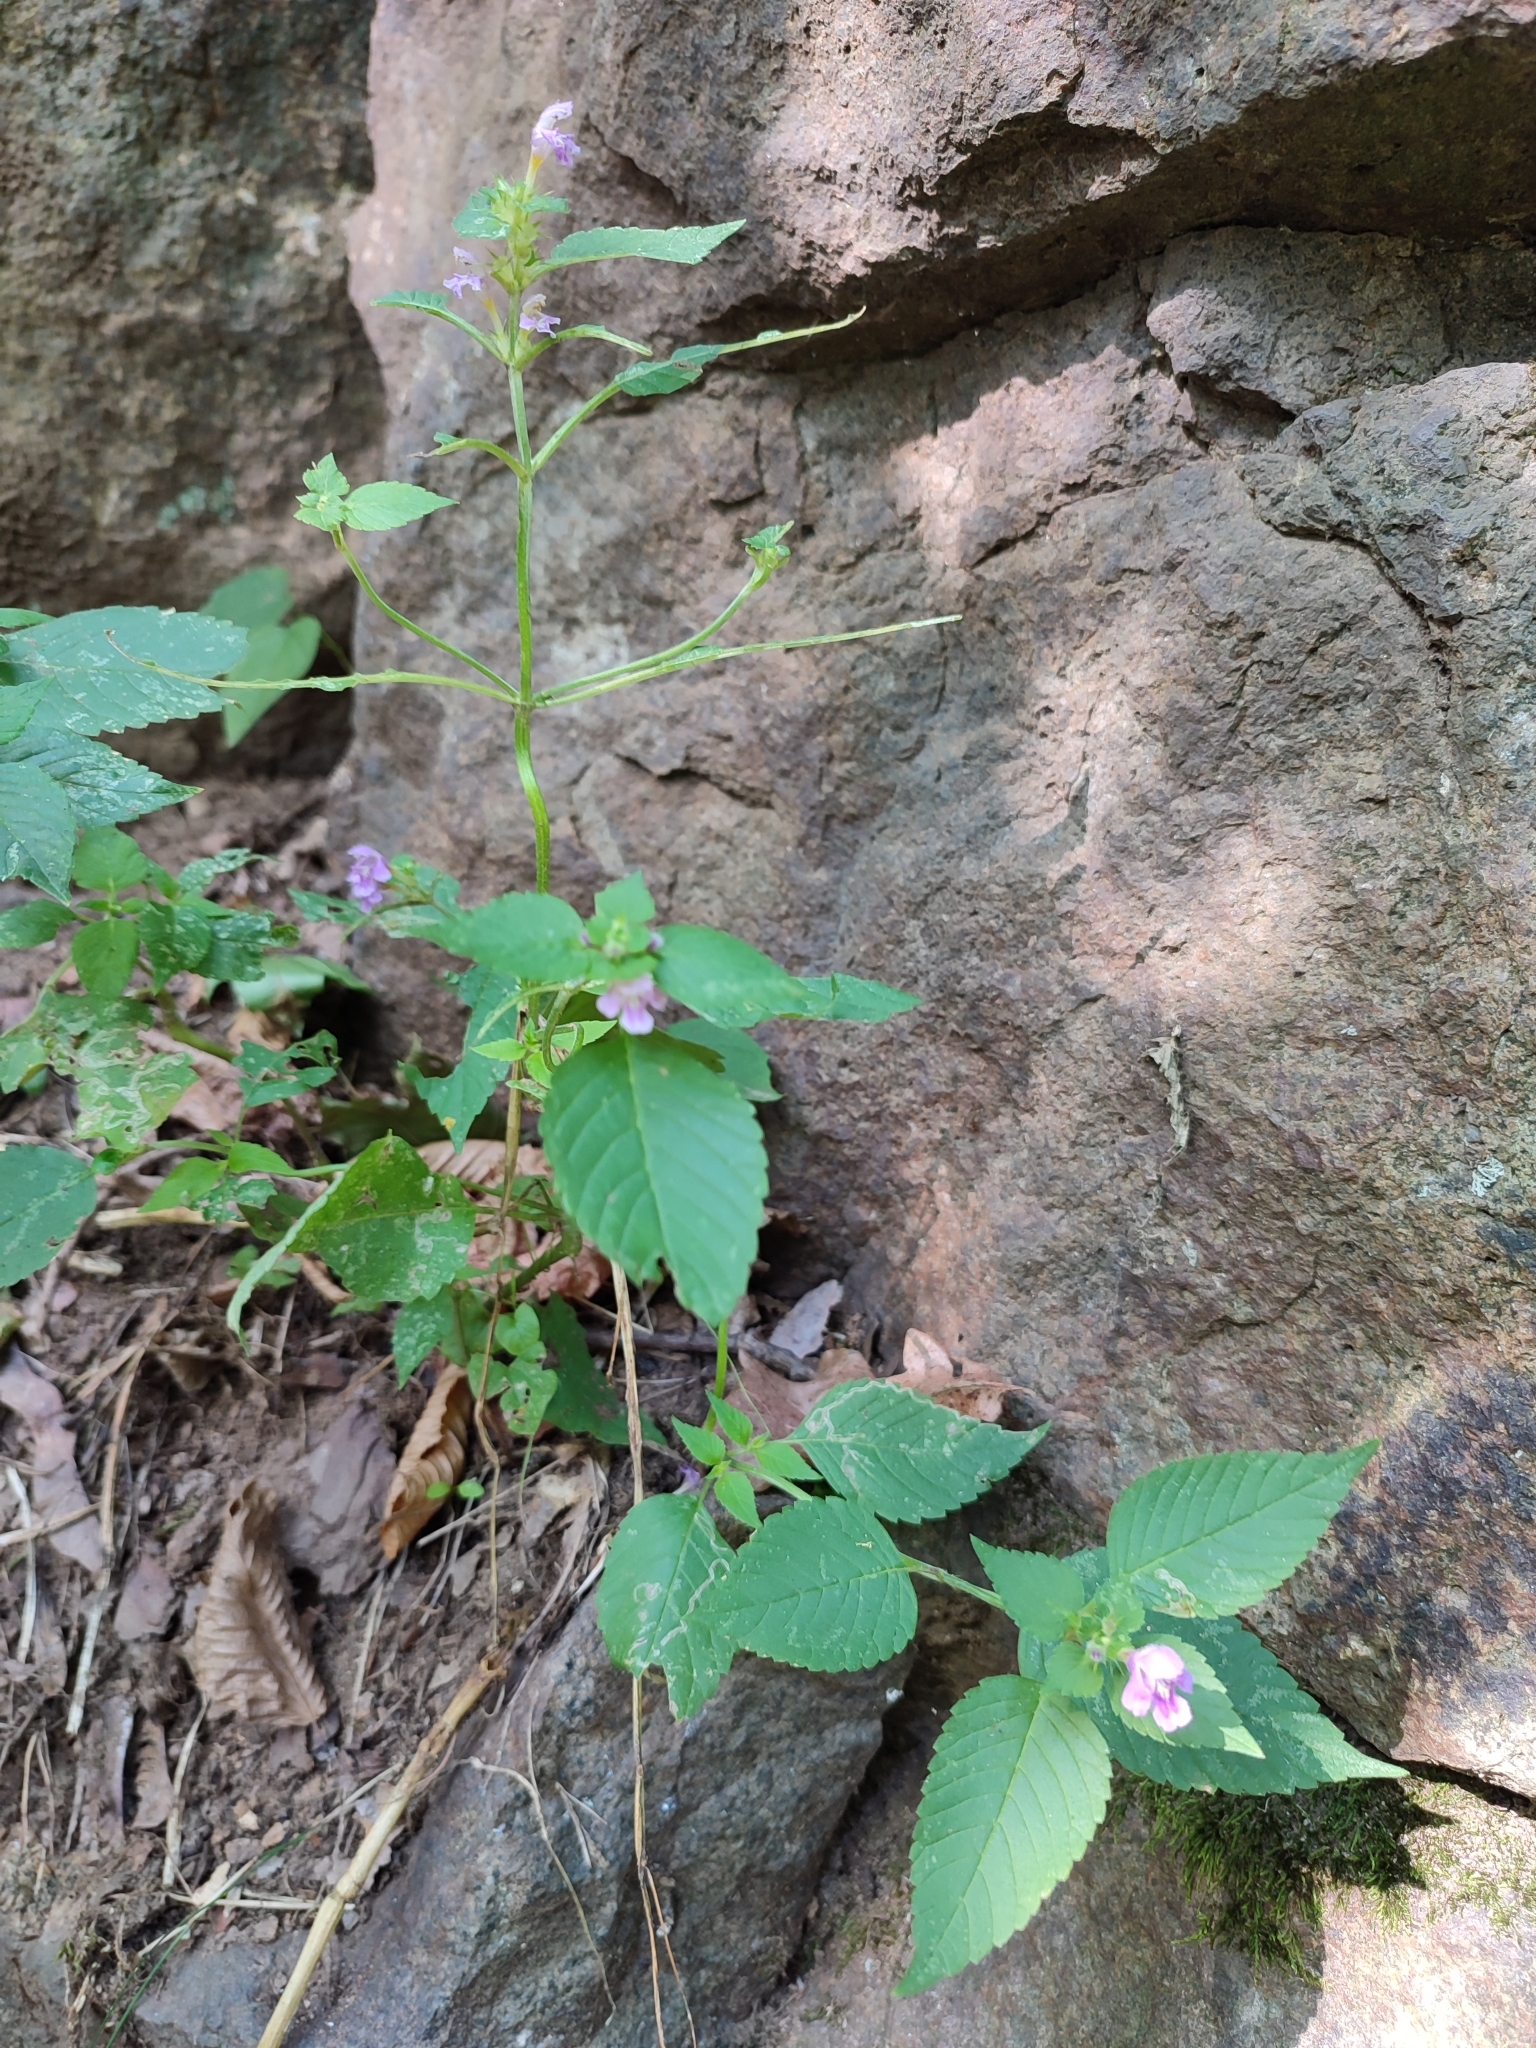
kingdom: Plantae
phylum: Tracheophyta
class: Magnoliopsida
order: Lamiales
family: Lamiaceae
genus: Galeopsis
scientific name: Galeopsis pubescens
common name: Downy hemp-nettle
